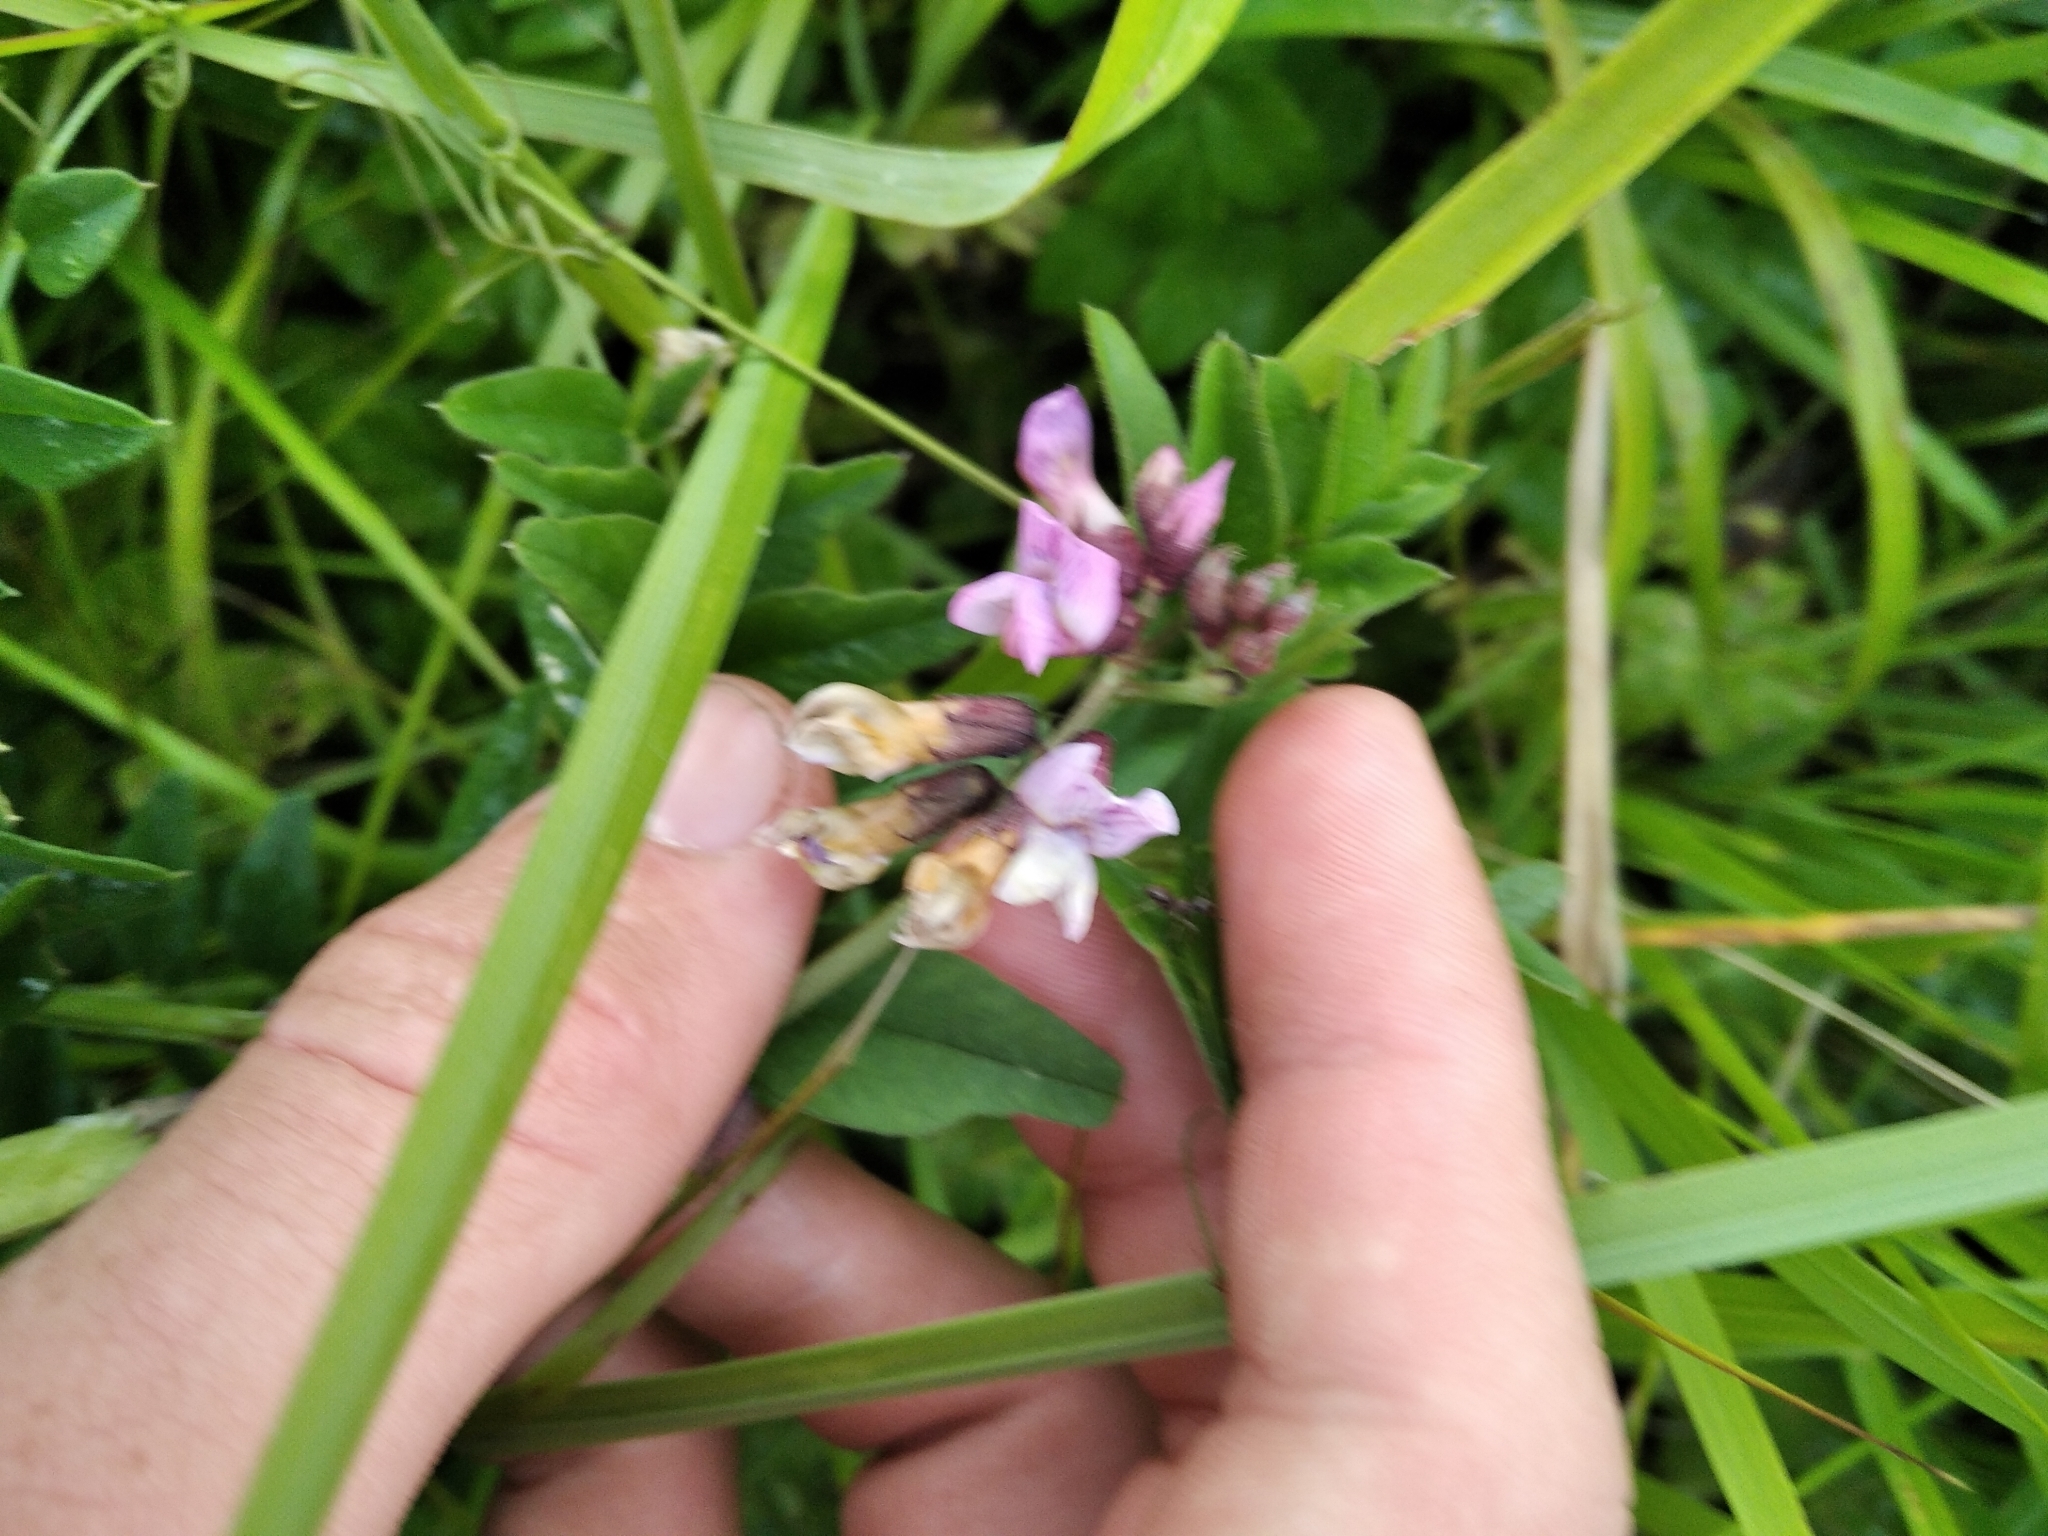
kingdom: Plantae
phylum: Tracheophyta
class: Magnoliopsida
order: Fabales
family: Fabaceae
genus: Vicia
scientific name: Vicia sepium
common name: Bush vetch
